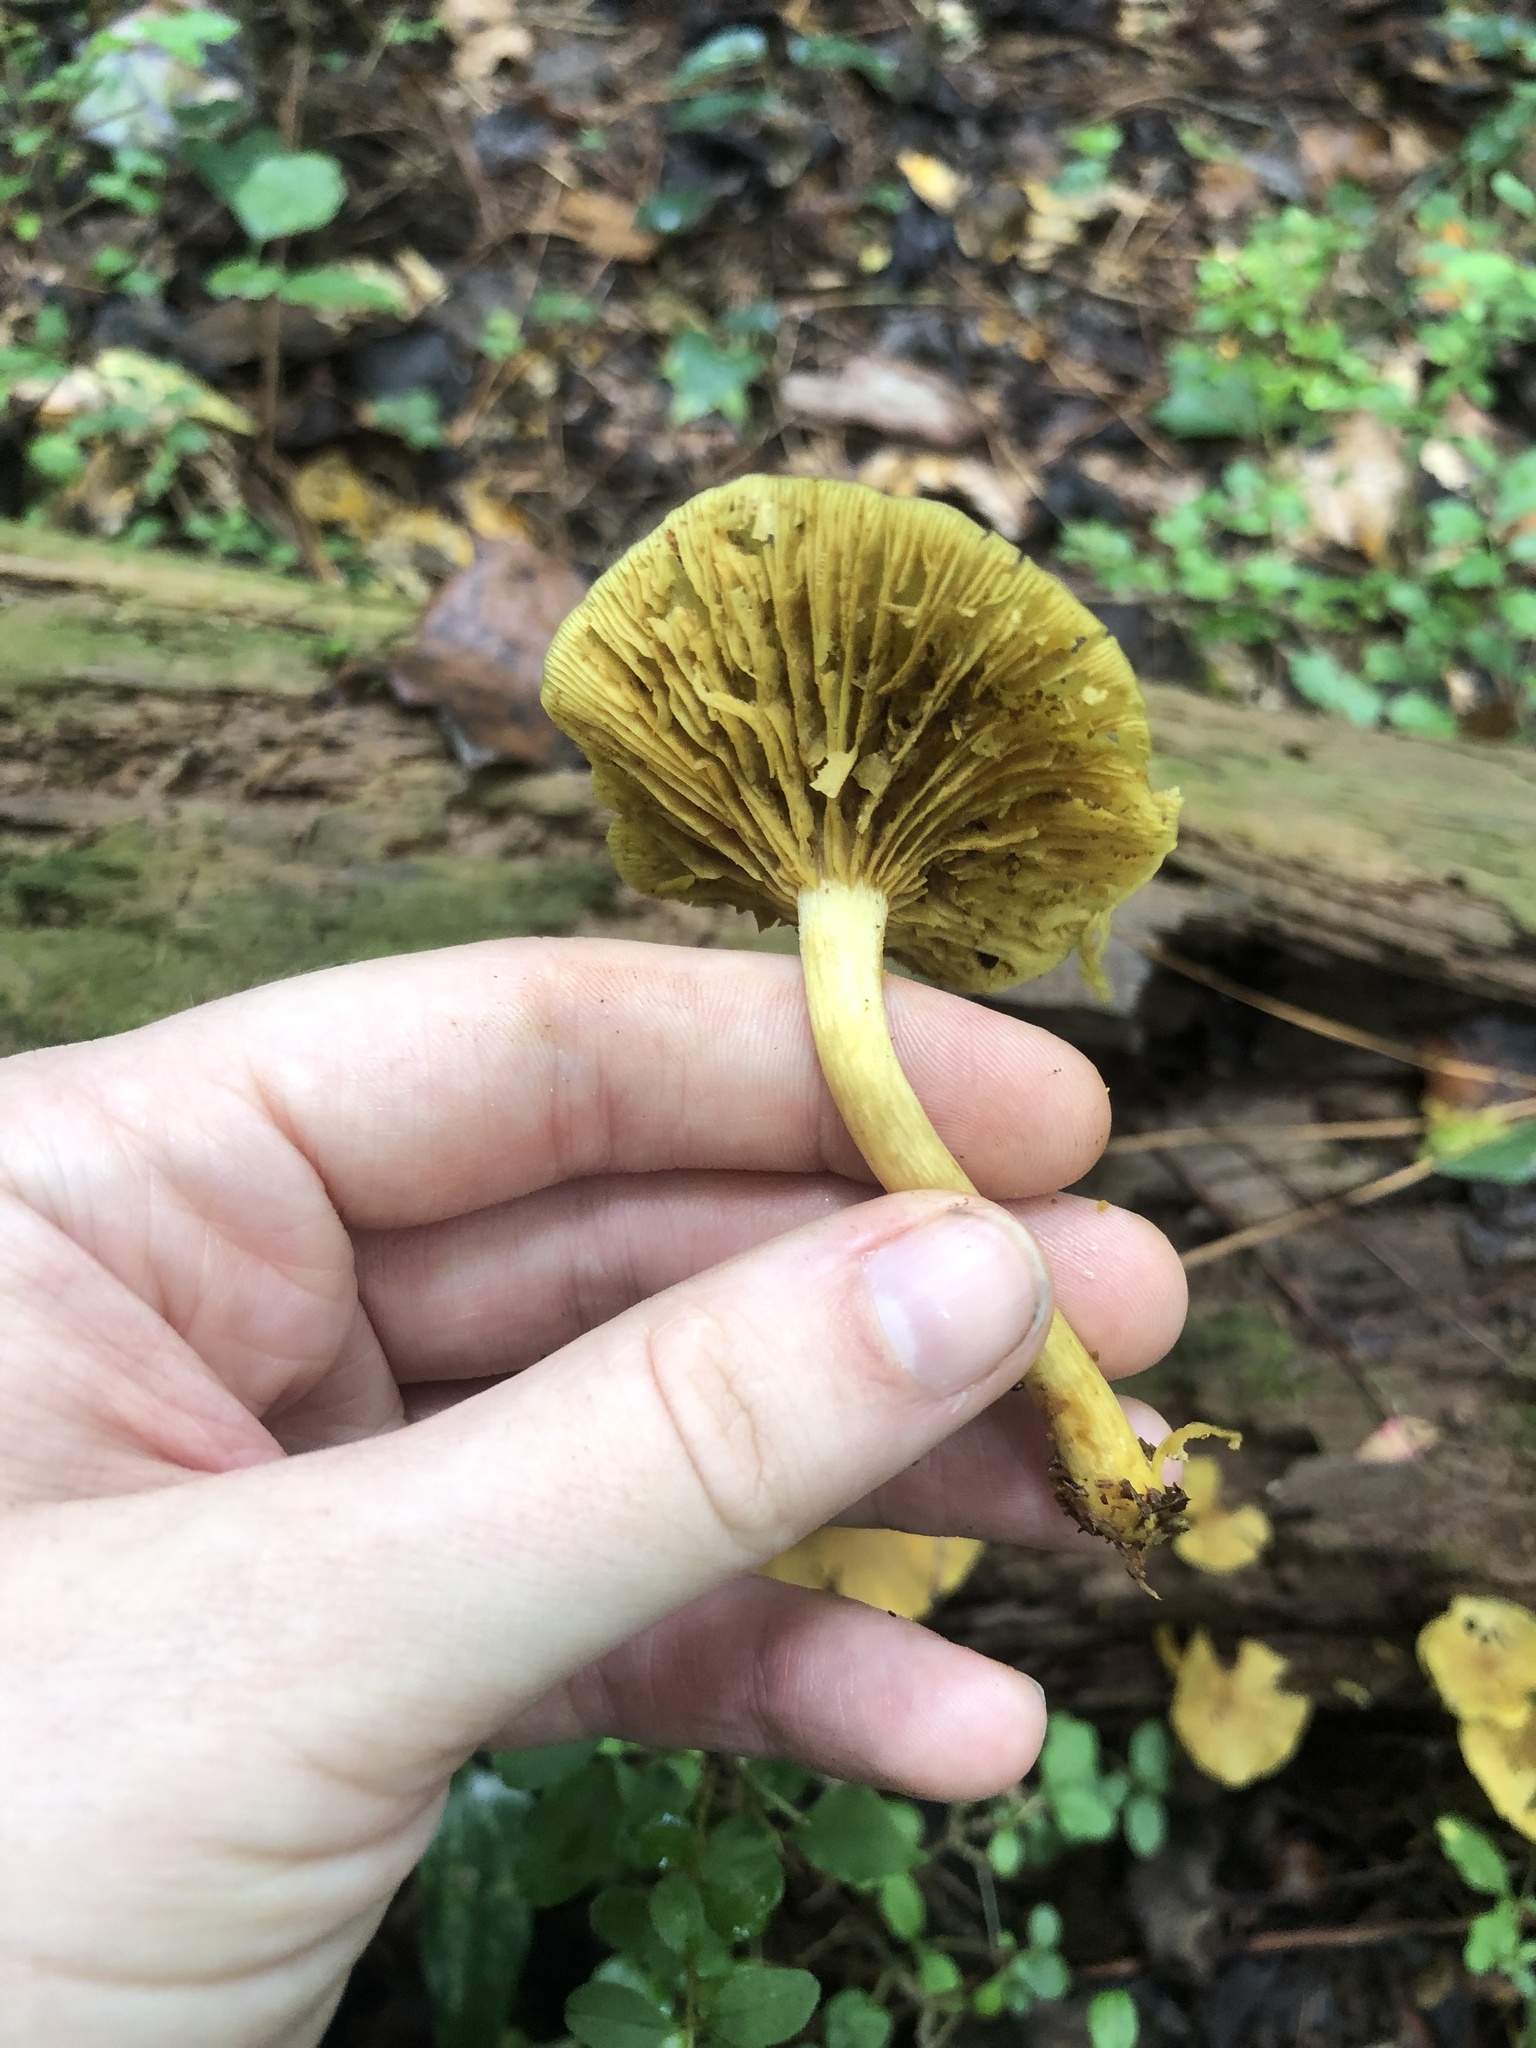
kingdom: Fungi
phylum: Basidiomycota
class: Agaricomycetes
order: Agaricales
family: Marasmiaceae
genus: Gerronema
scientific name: Gerronema strombodes
